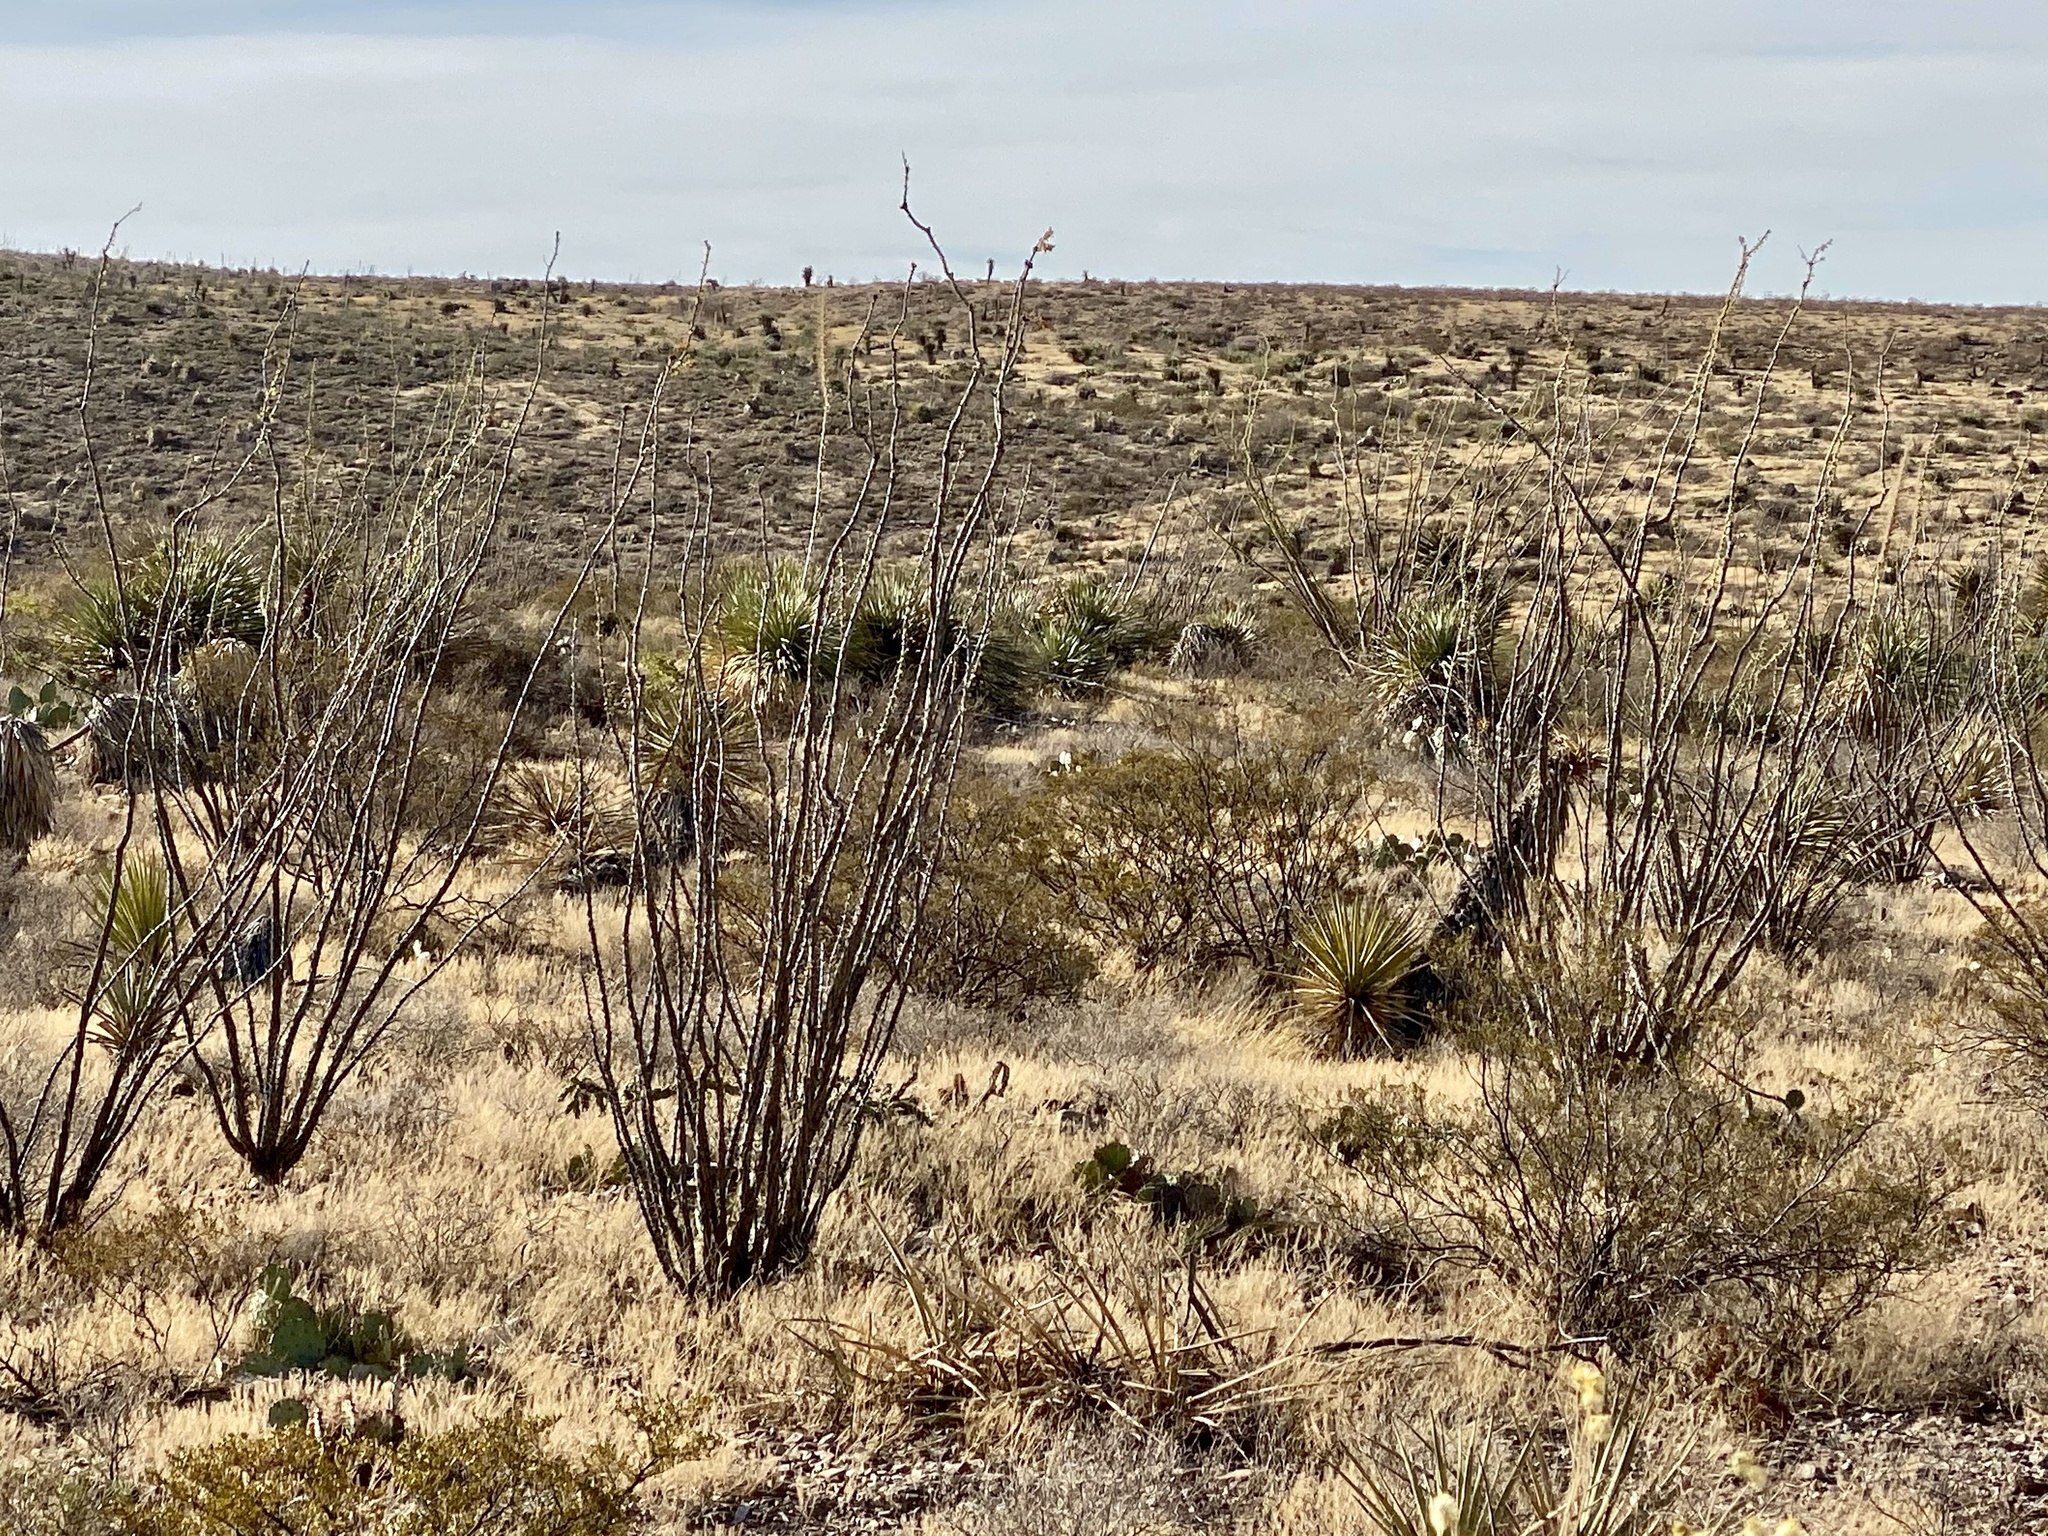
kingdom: Plantae
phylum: Tracheophyta
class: Magnoliopsida
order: Ericales
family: Fouquieriaceae
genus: Fouquieria
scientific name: Fouquieria splendens
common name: Vine-cactus
